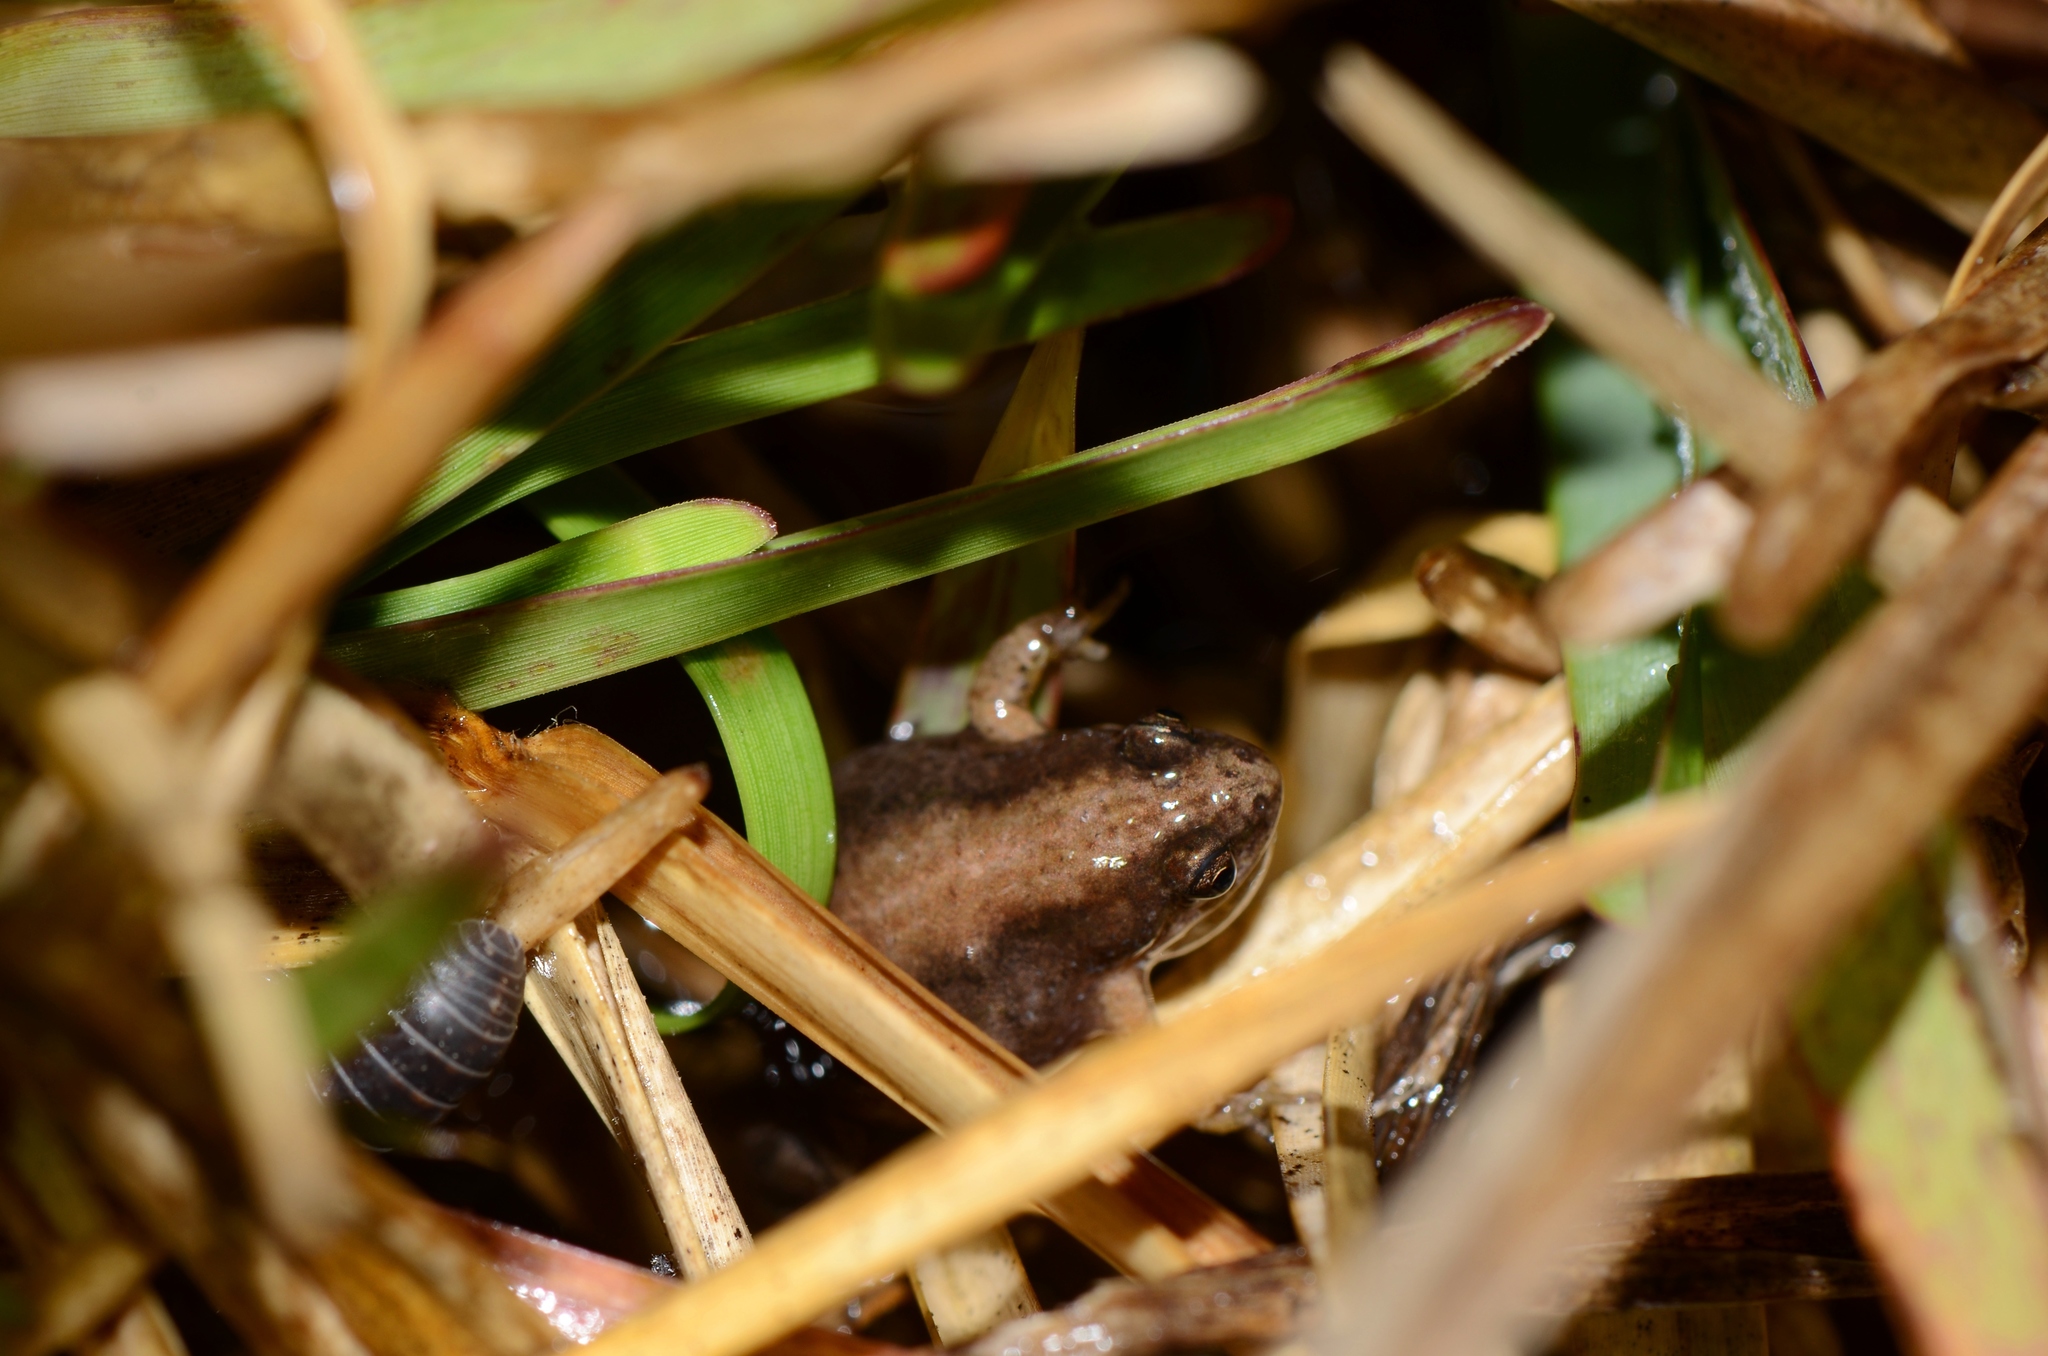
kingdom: Animalia
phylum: Chordata
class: Amphibia
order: Anura
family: Pyxicephalidae
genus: Cacosternum
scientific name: Cacosternum platys
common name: Smooth dainty frog
